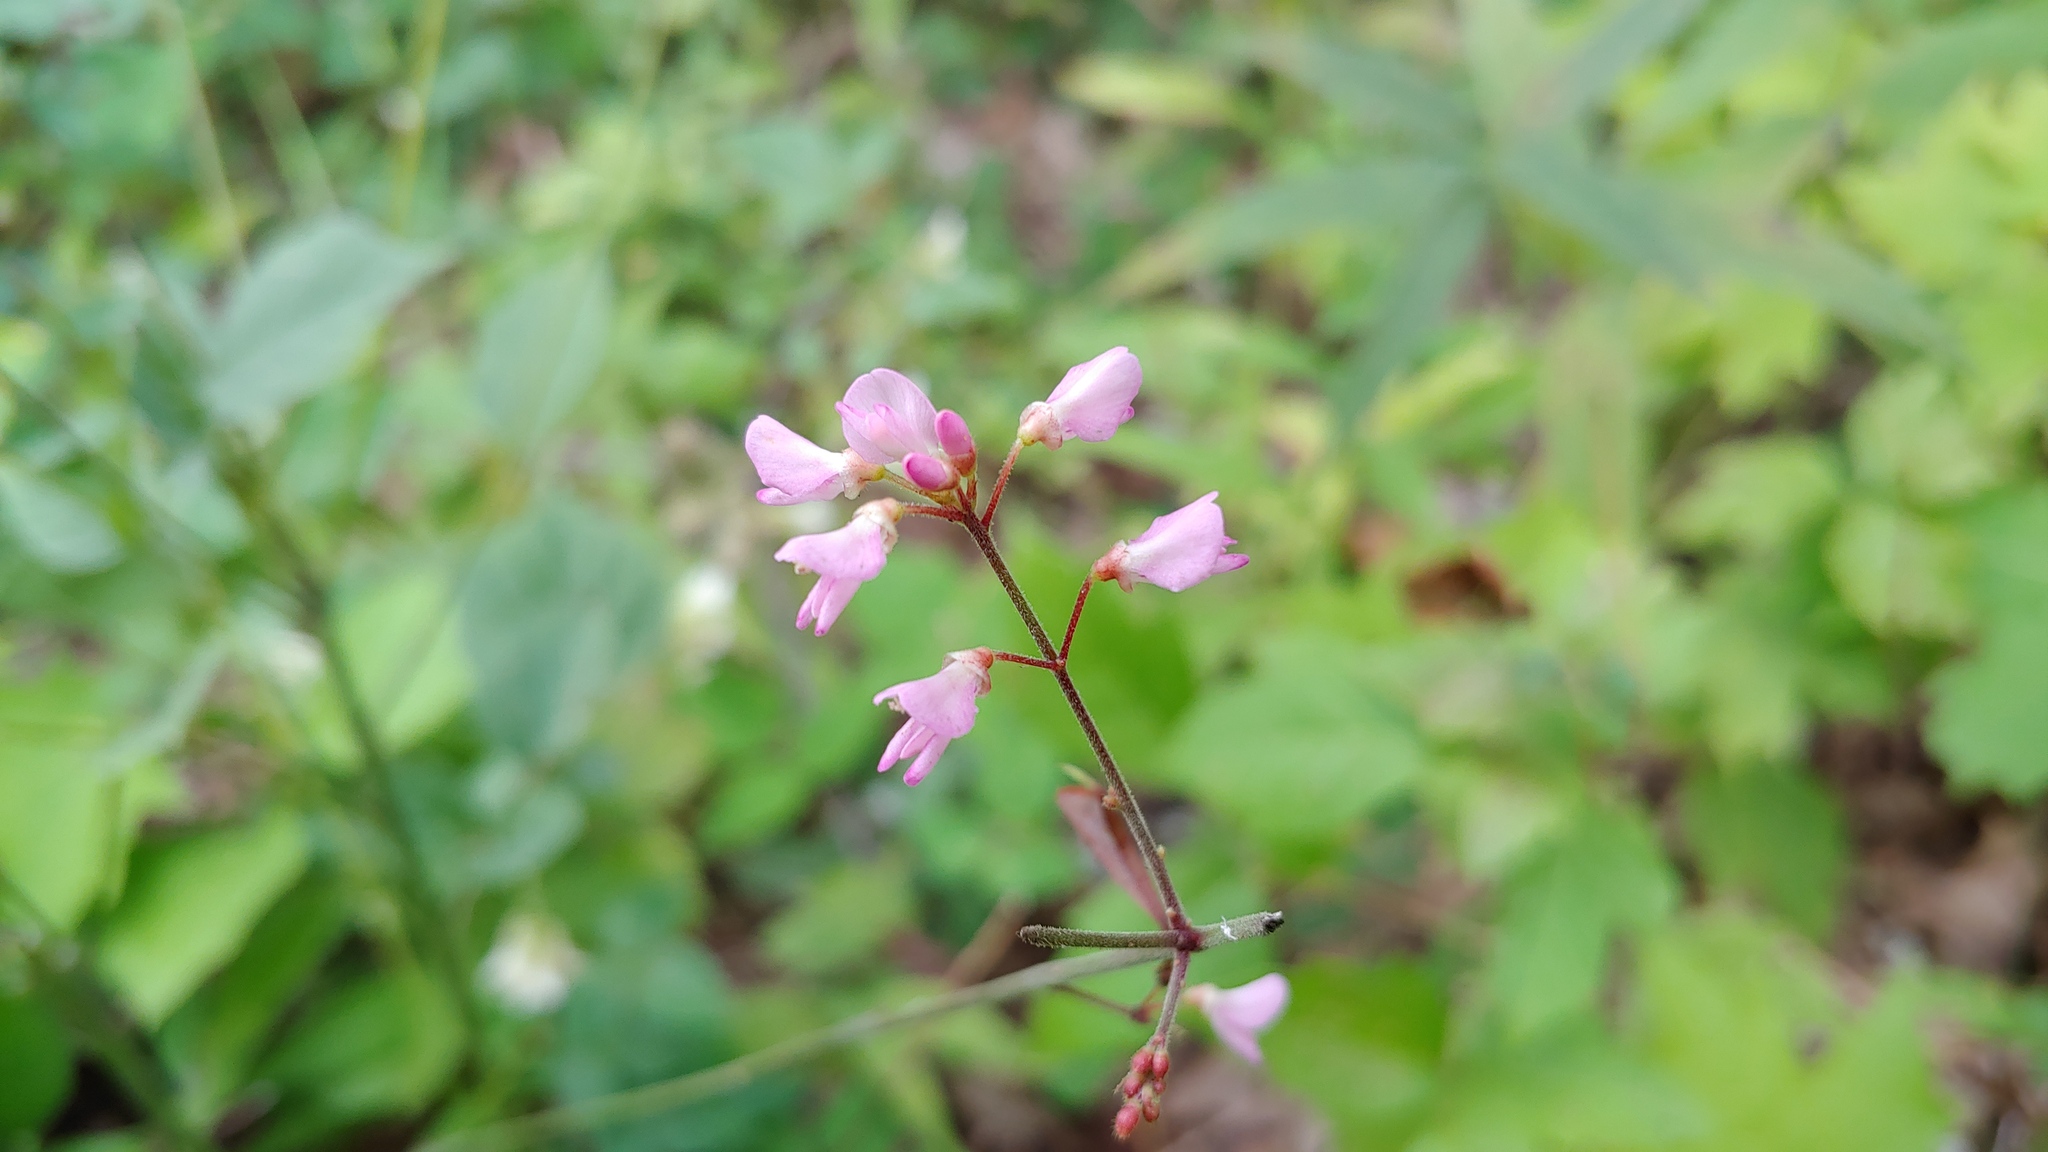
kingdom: Plantae
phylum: Tracheophyta
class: Magnoliopsida
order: Fabales
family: Fabaceae
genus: Hylodesmum
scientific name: Hylodesmum glutinosum
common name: Clustered-leaved tick-trefoil
